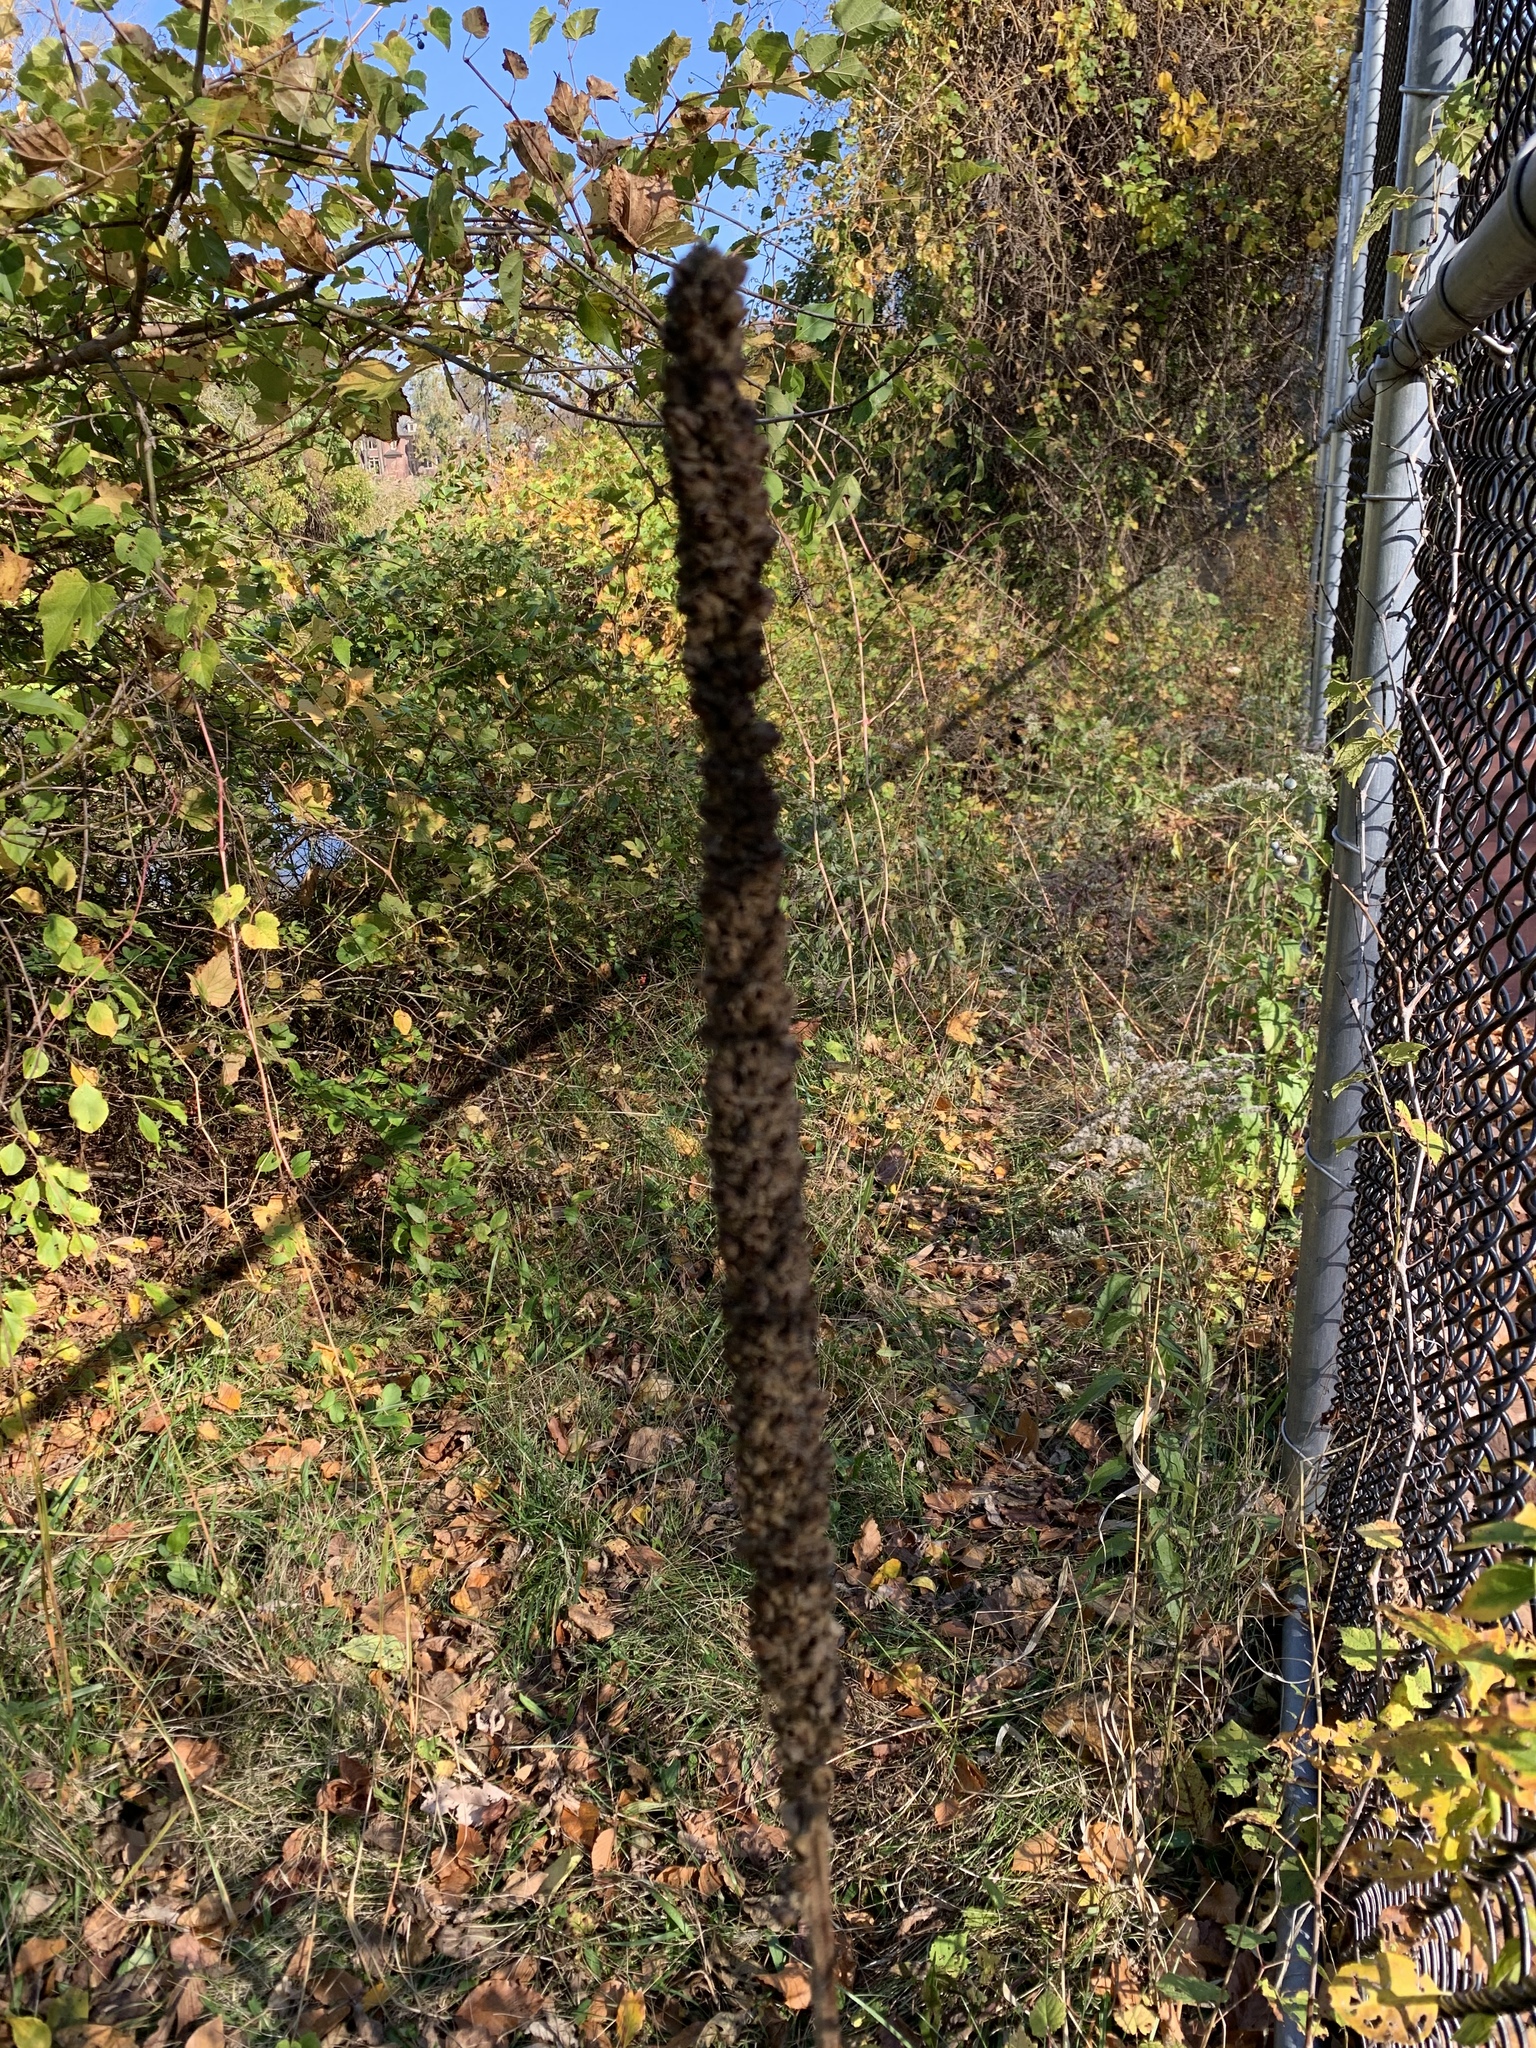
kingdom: Plantae
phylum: Tracheophyta
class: Magnoliopsida
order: Lamiales
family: Scrophulariaceae
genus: Verbascum
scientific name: Verbascum thapsus
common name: Common mullein
